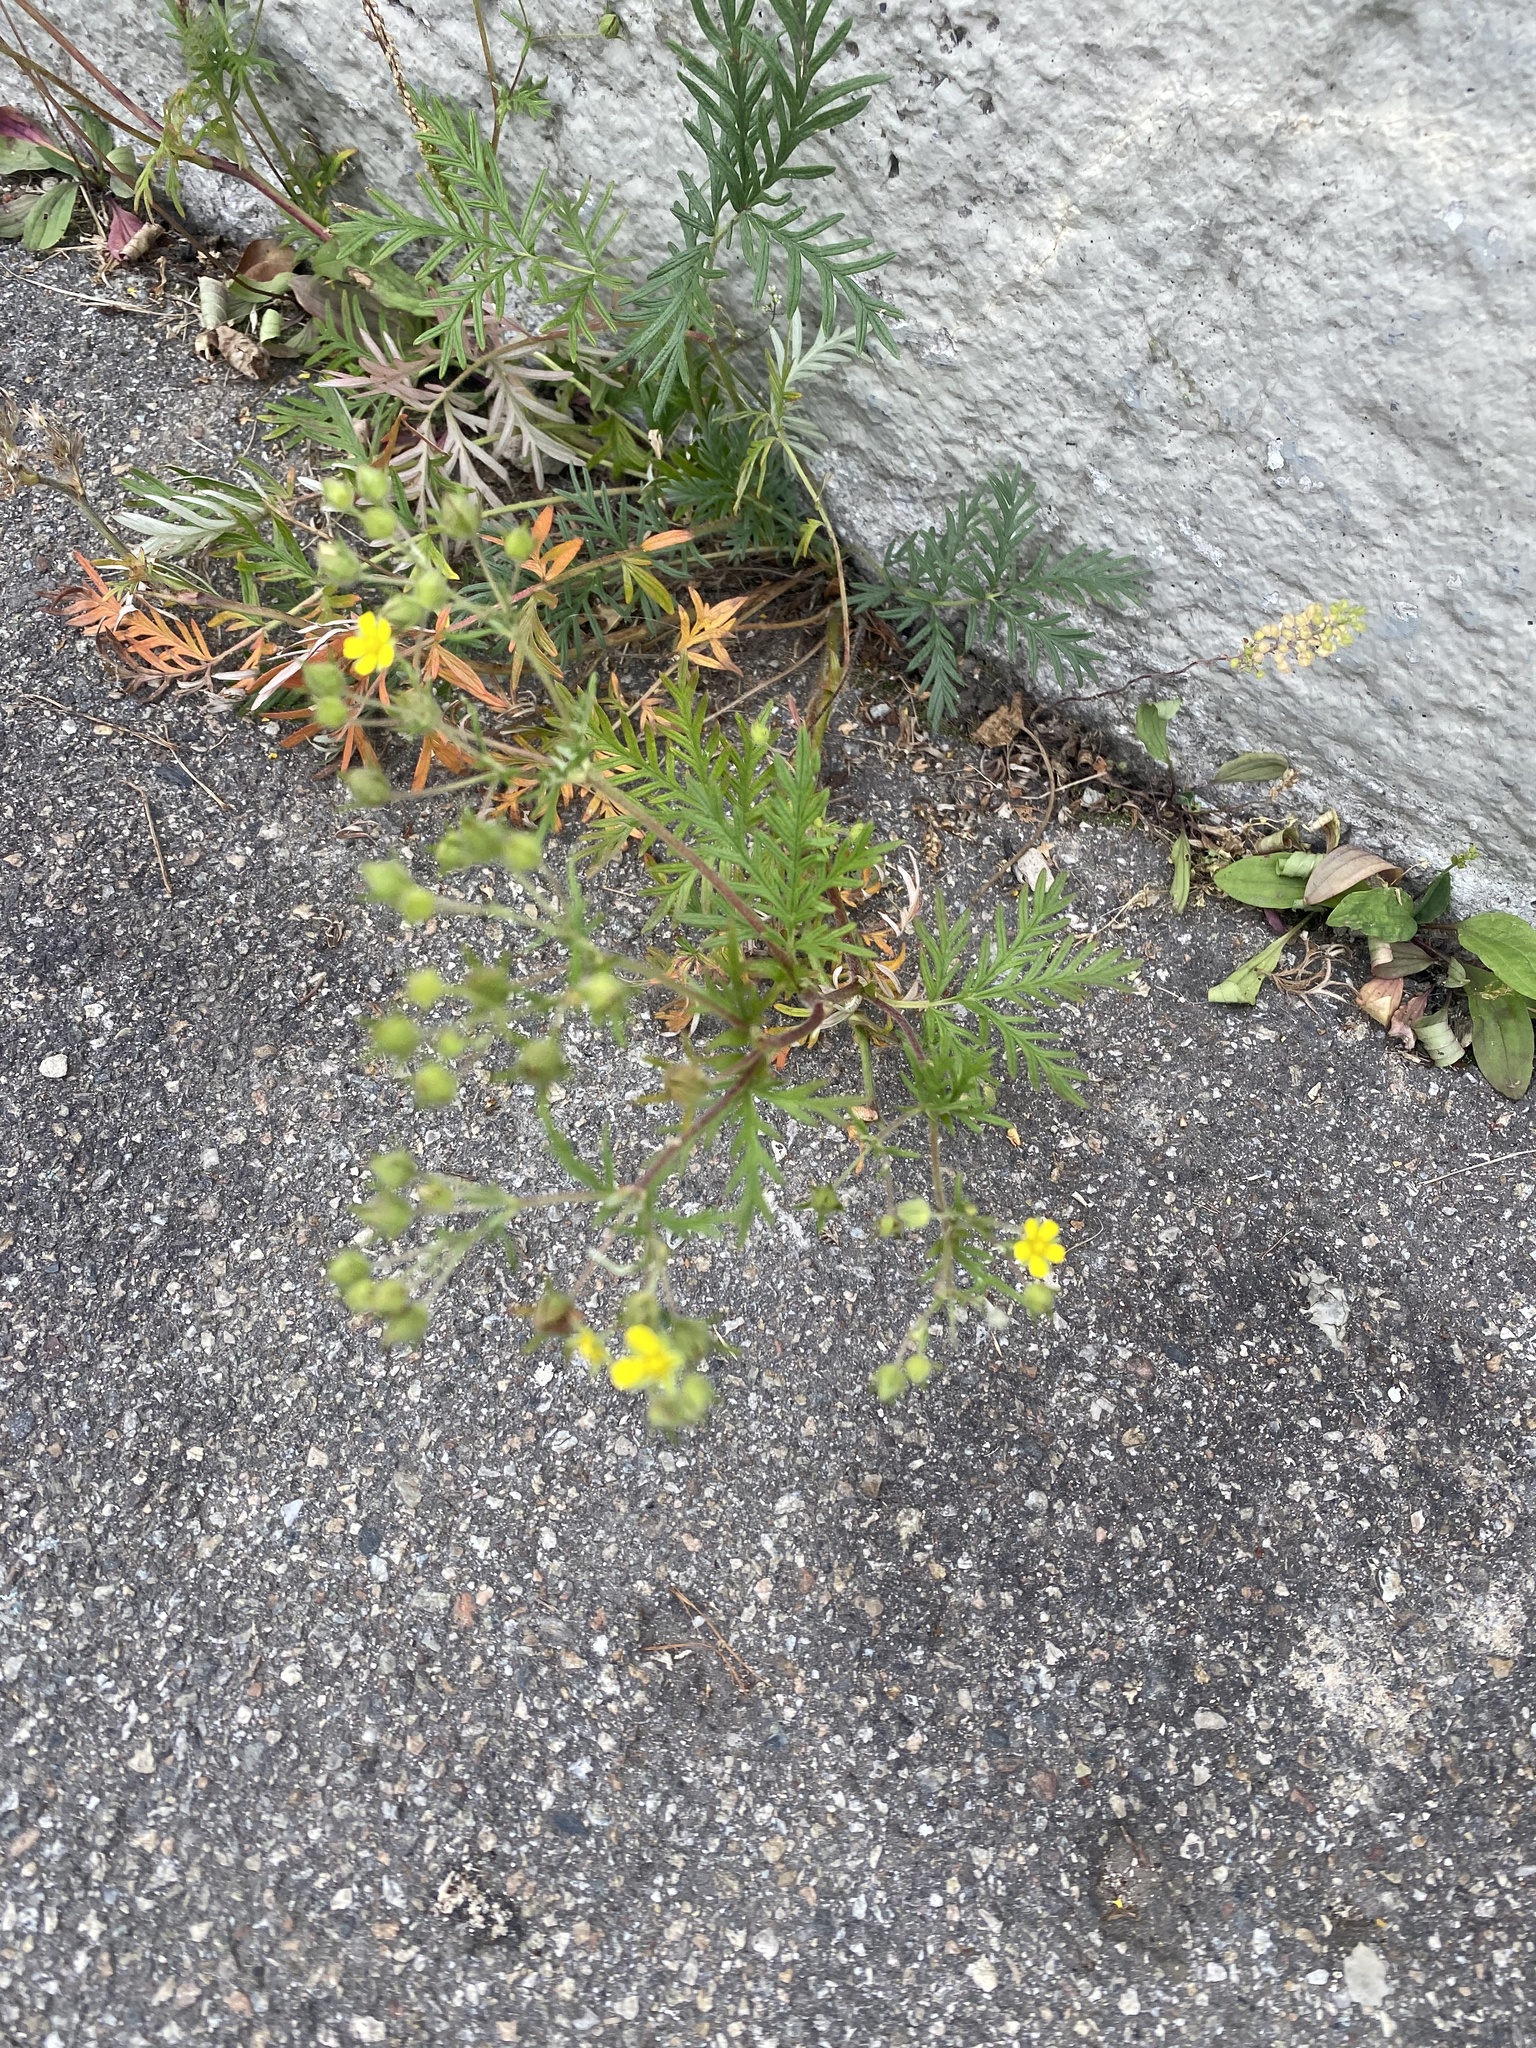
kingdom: Plantae
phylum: Tracheophyta
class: Magnoliopsida
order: Rosales
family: Rosaceae
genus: Potentilla
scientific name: Potentilla tergemina
